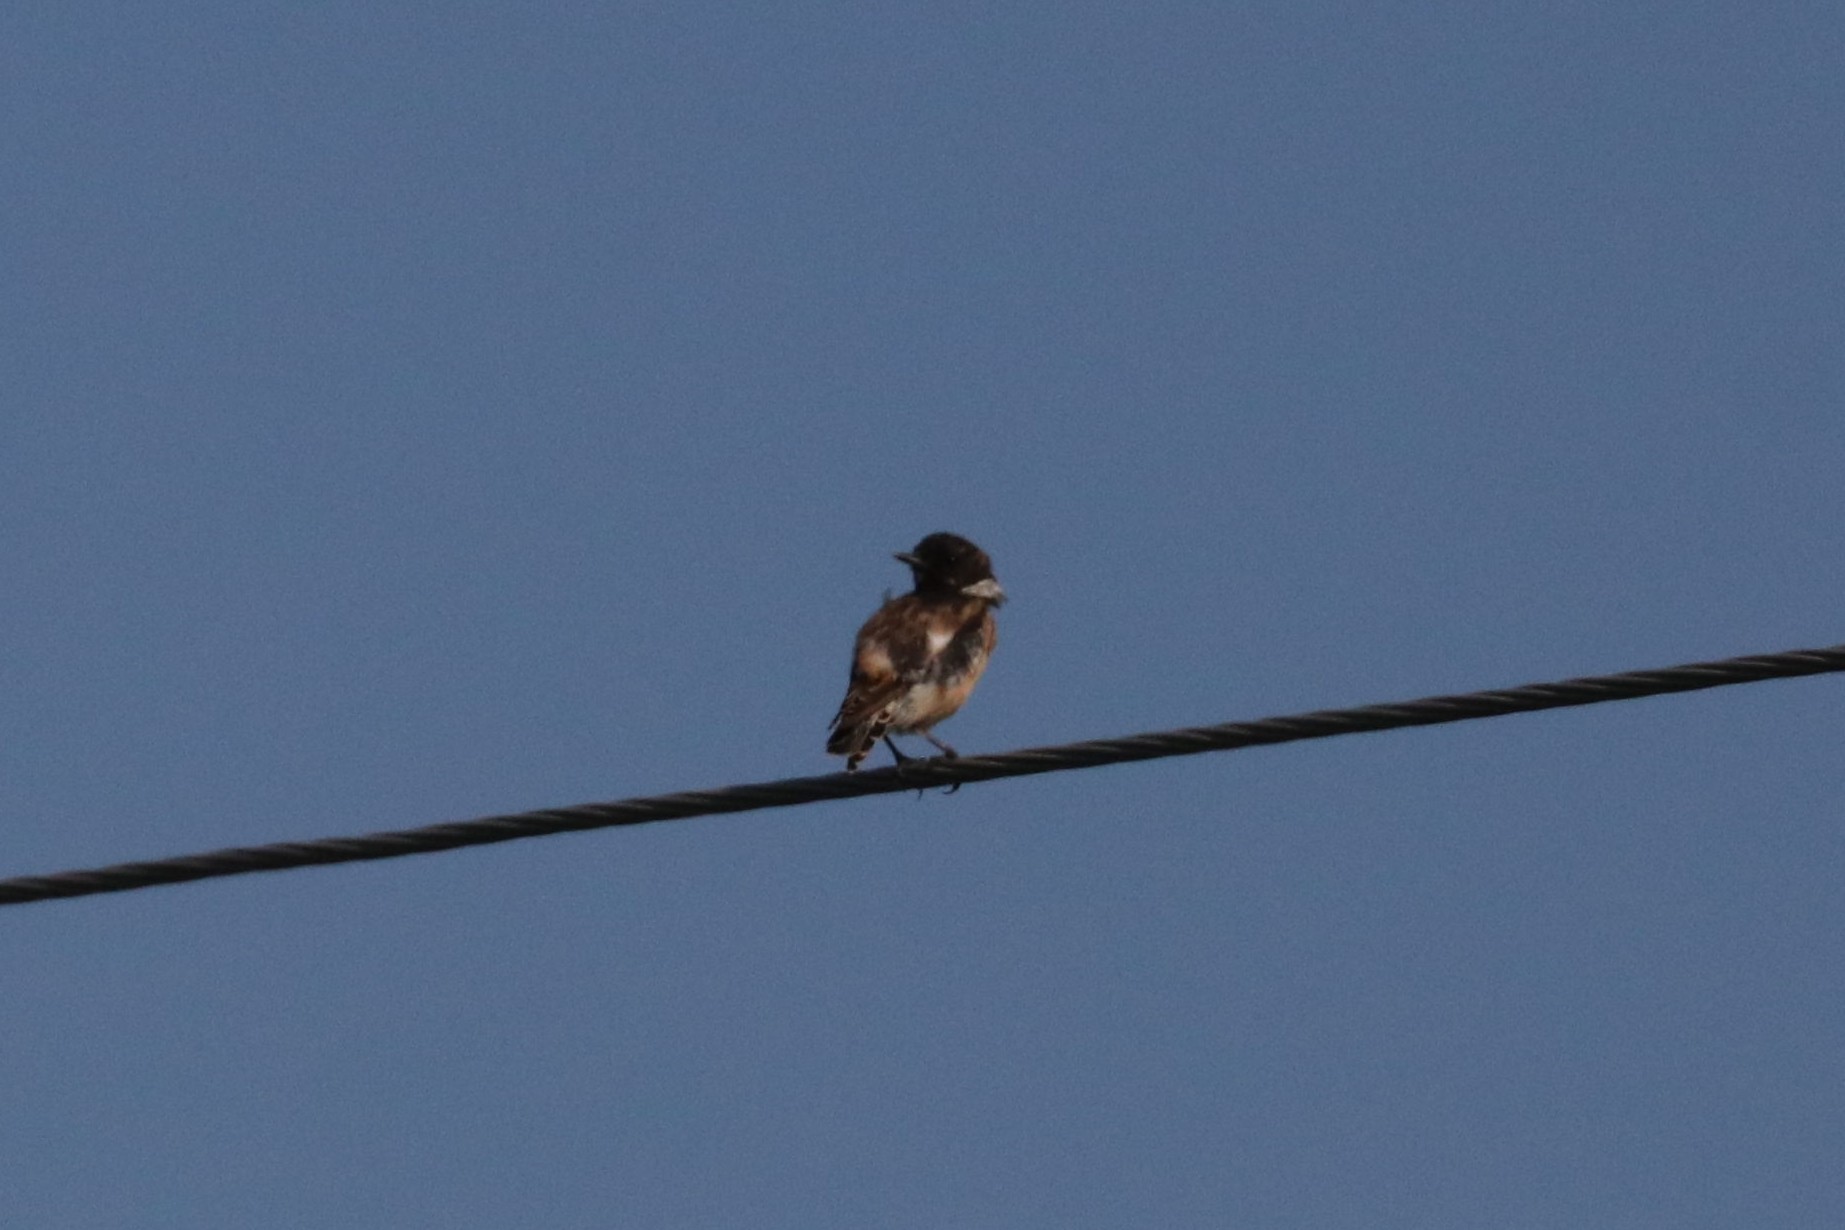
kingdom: Animalia
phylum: Chordata
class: Aves
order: Passeriformes
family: Muscicapidae
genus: Saxicola
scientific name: Saxicola maurus
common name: Siberian stonechat
